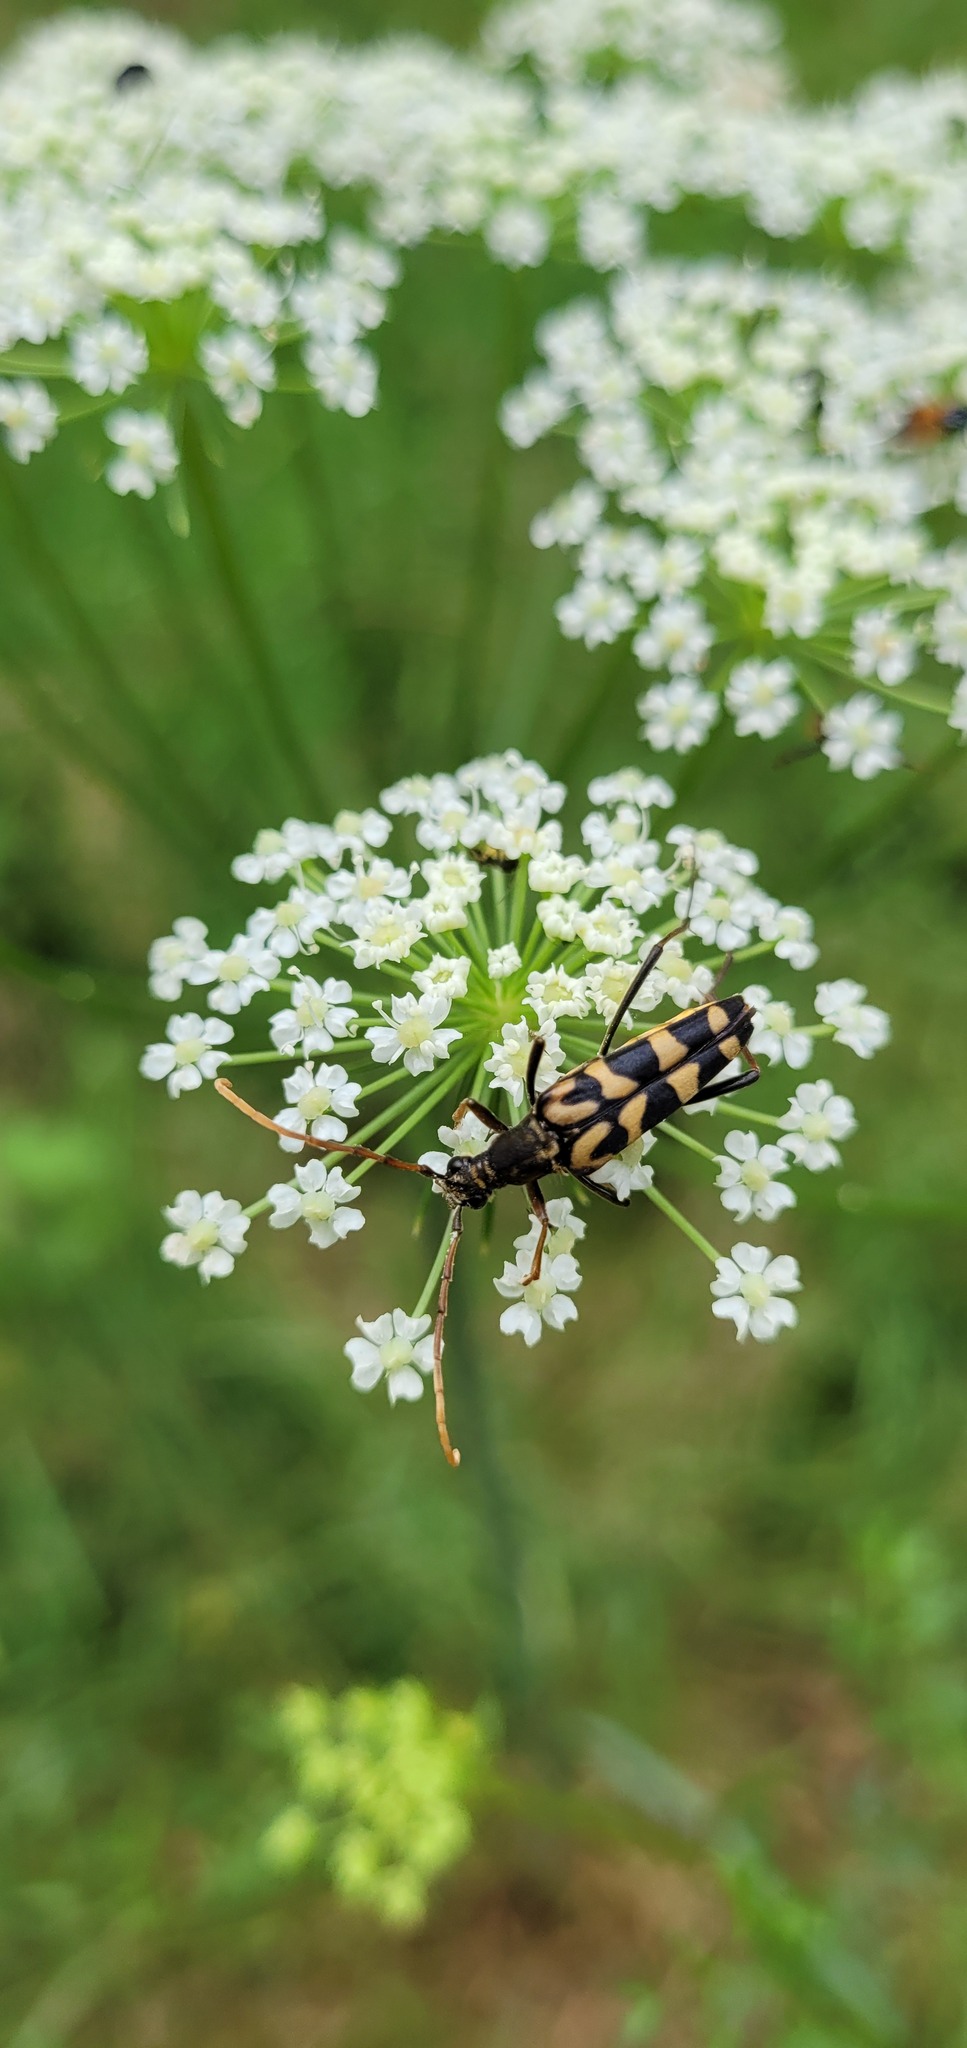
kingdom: Animalia
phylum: Arthropoda
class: Insecta
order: Coleoptera
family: Cerambycidae
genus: Leptura
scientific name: Leptura annularis
